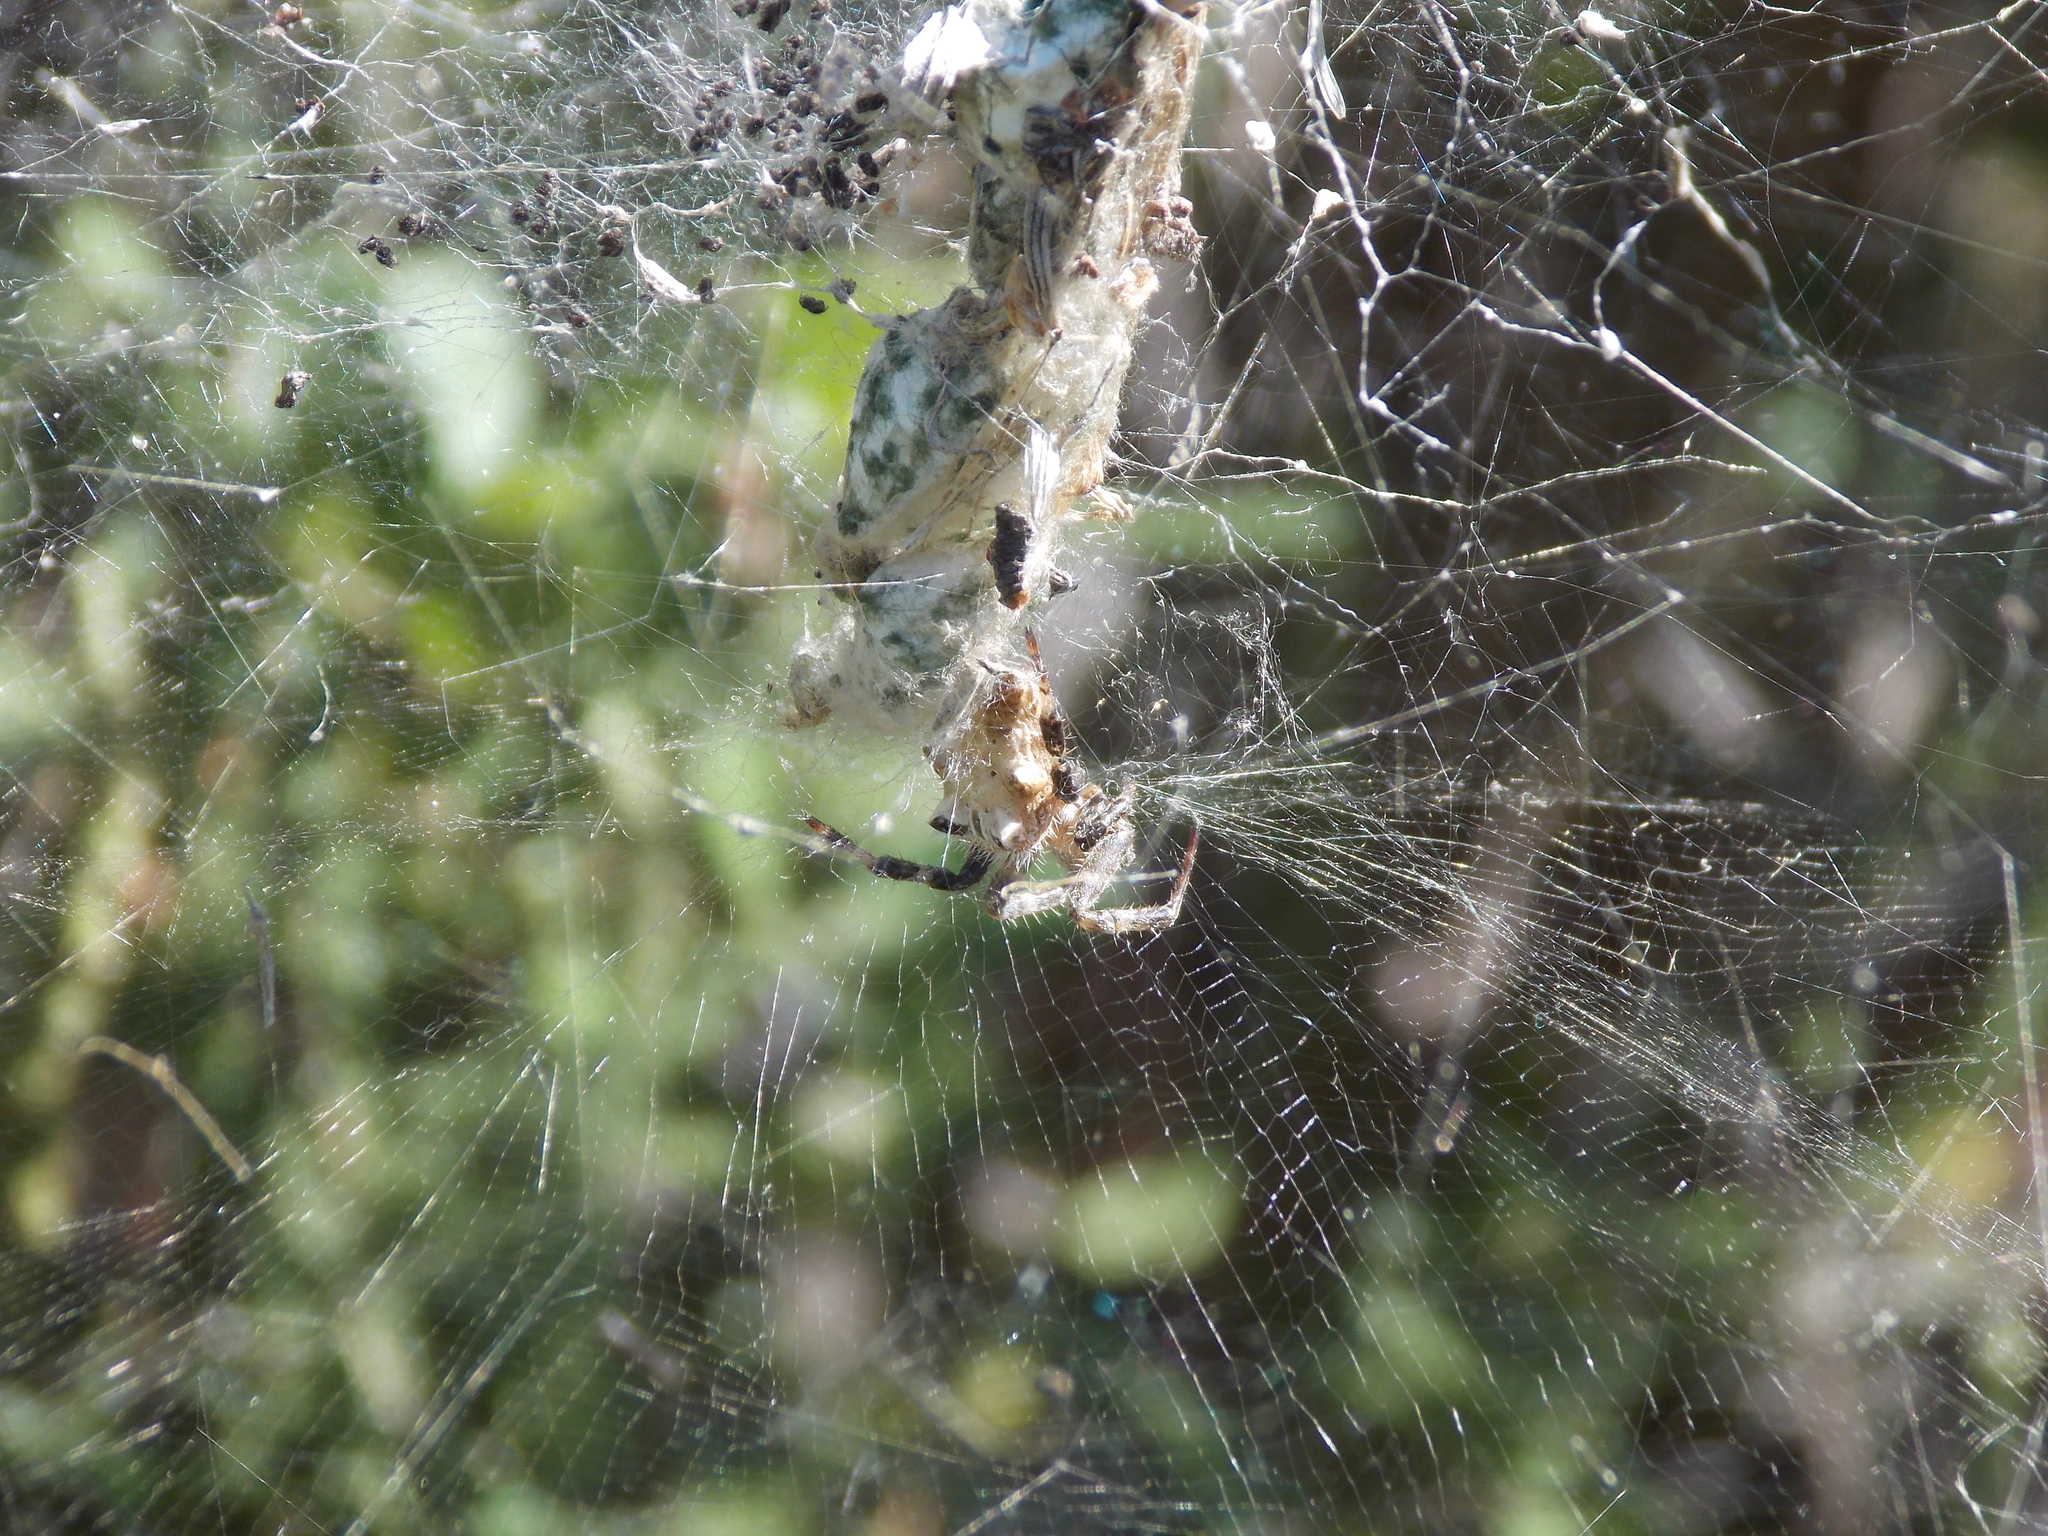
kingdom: Animalia
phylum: Arthropoda
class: Arachnida
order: Araneae
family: Araneidae
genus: Cyrtophora
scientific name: Cyrtophora citricola
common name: Orb weavers
